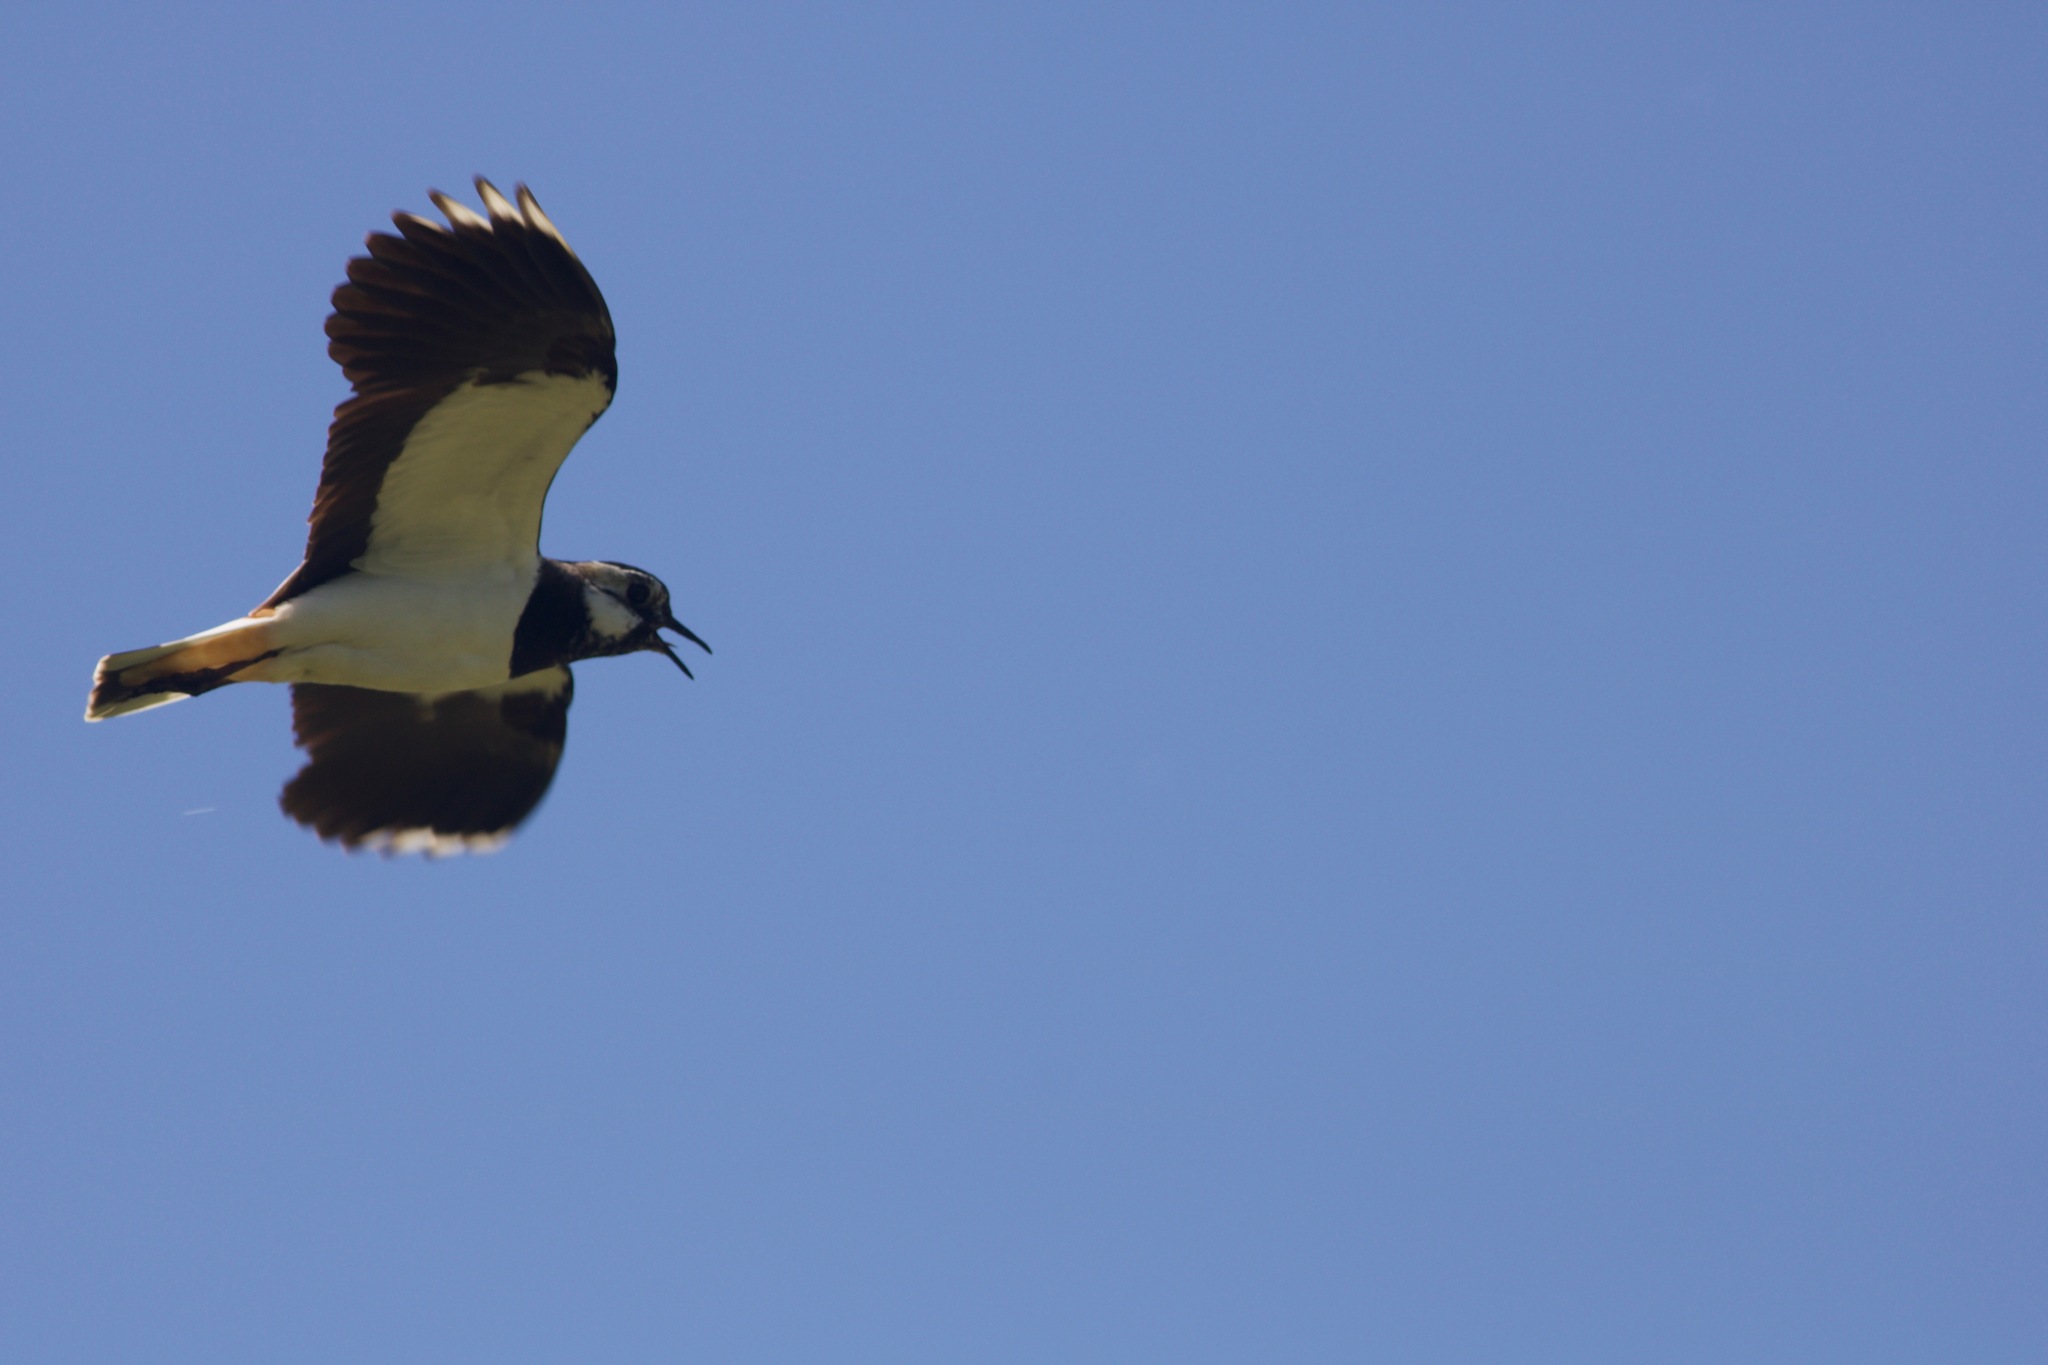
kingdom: Animalia
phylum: Chordata
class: Aves
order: Charadriiformes
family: Charadriidae
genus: Vanellus
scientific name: Vanellus vanellus
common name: Northern lapwing
